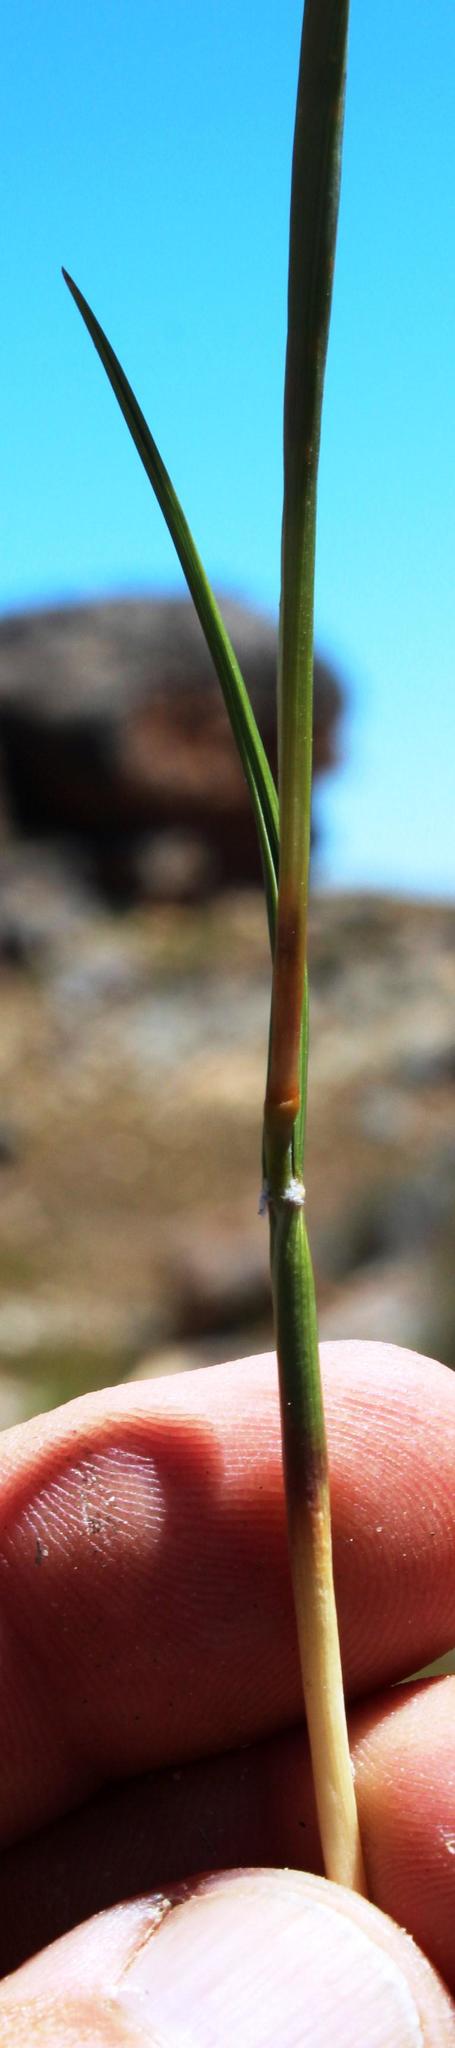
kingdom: Plantae
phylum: Tracheophyta
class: Liliopsida
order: Poales
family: Poaceae
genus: Geochloa
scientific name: Geochloa rufa
